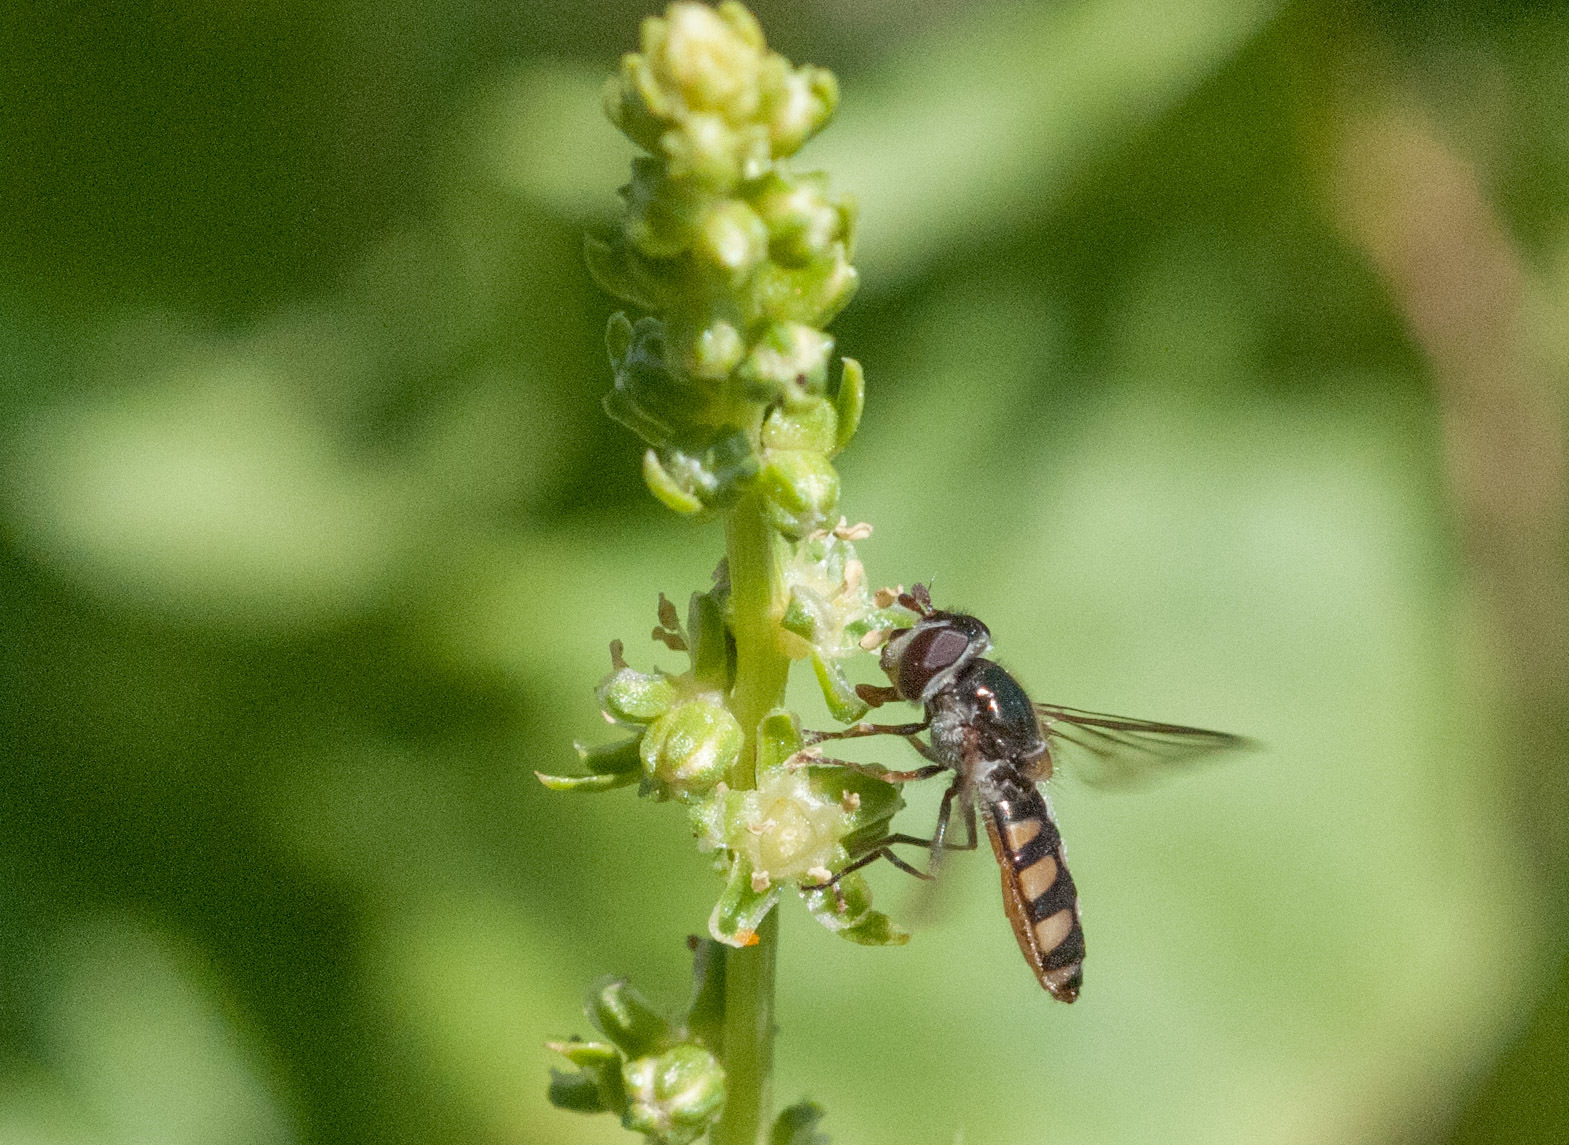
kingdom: Animalia
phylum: Arthropoda
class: Insecta
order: Diptera
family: Syrphidae
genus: Melangyna
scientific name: Melangyna viridiceps
